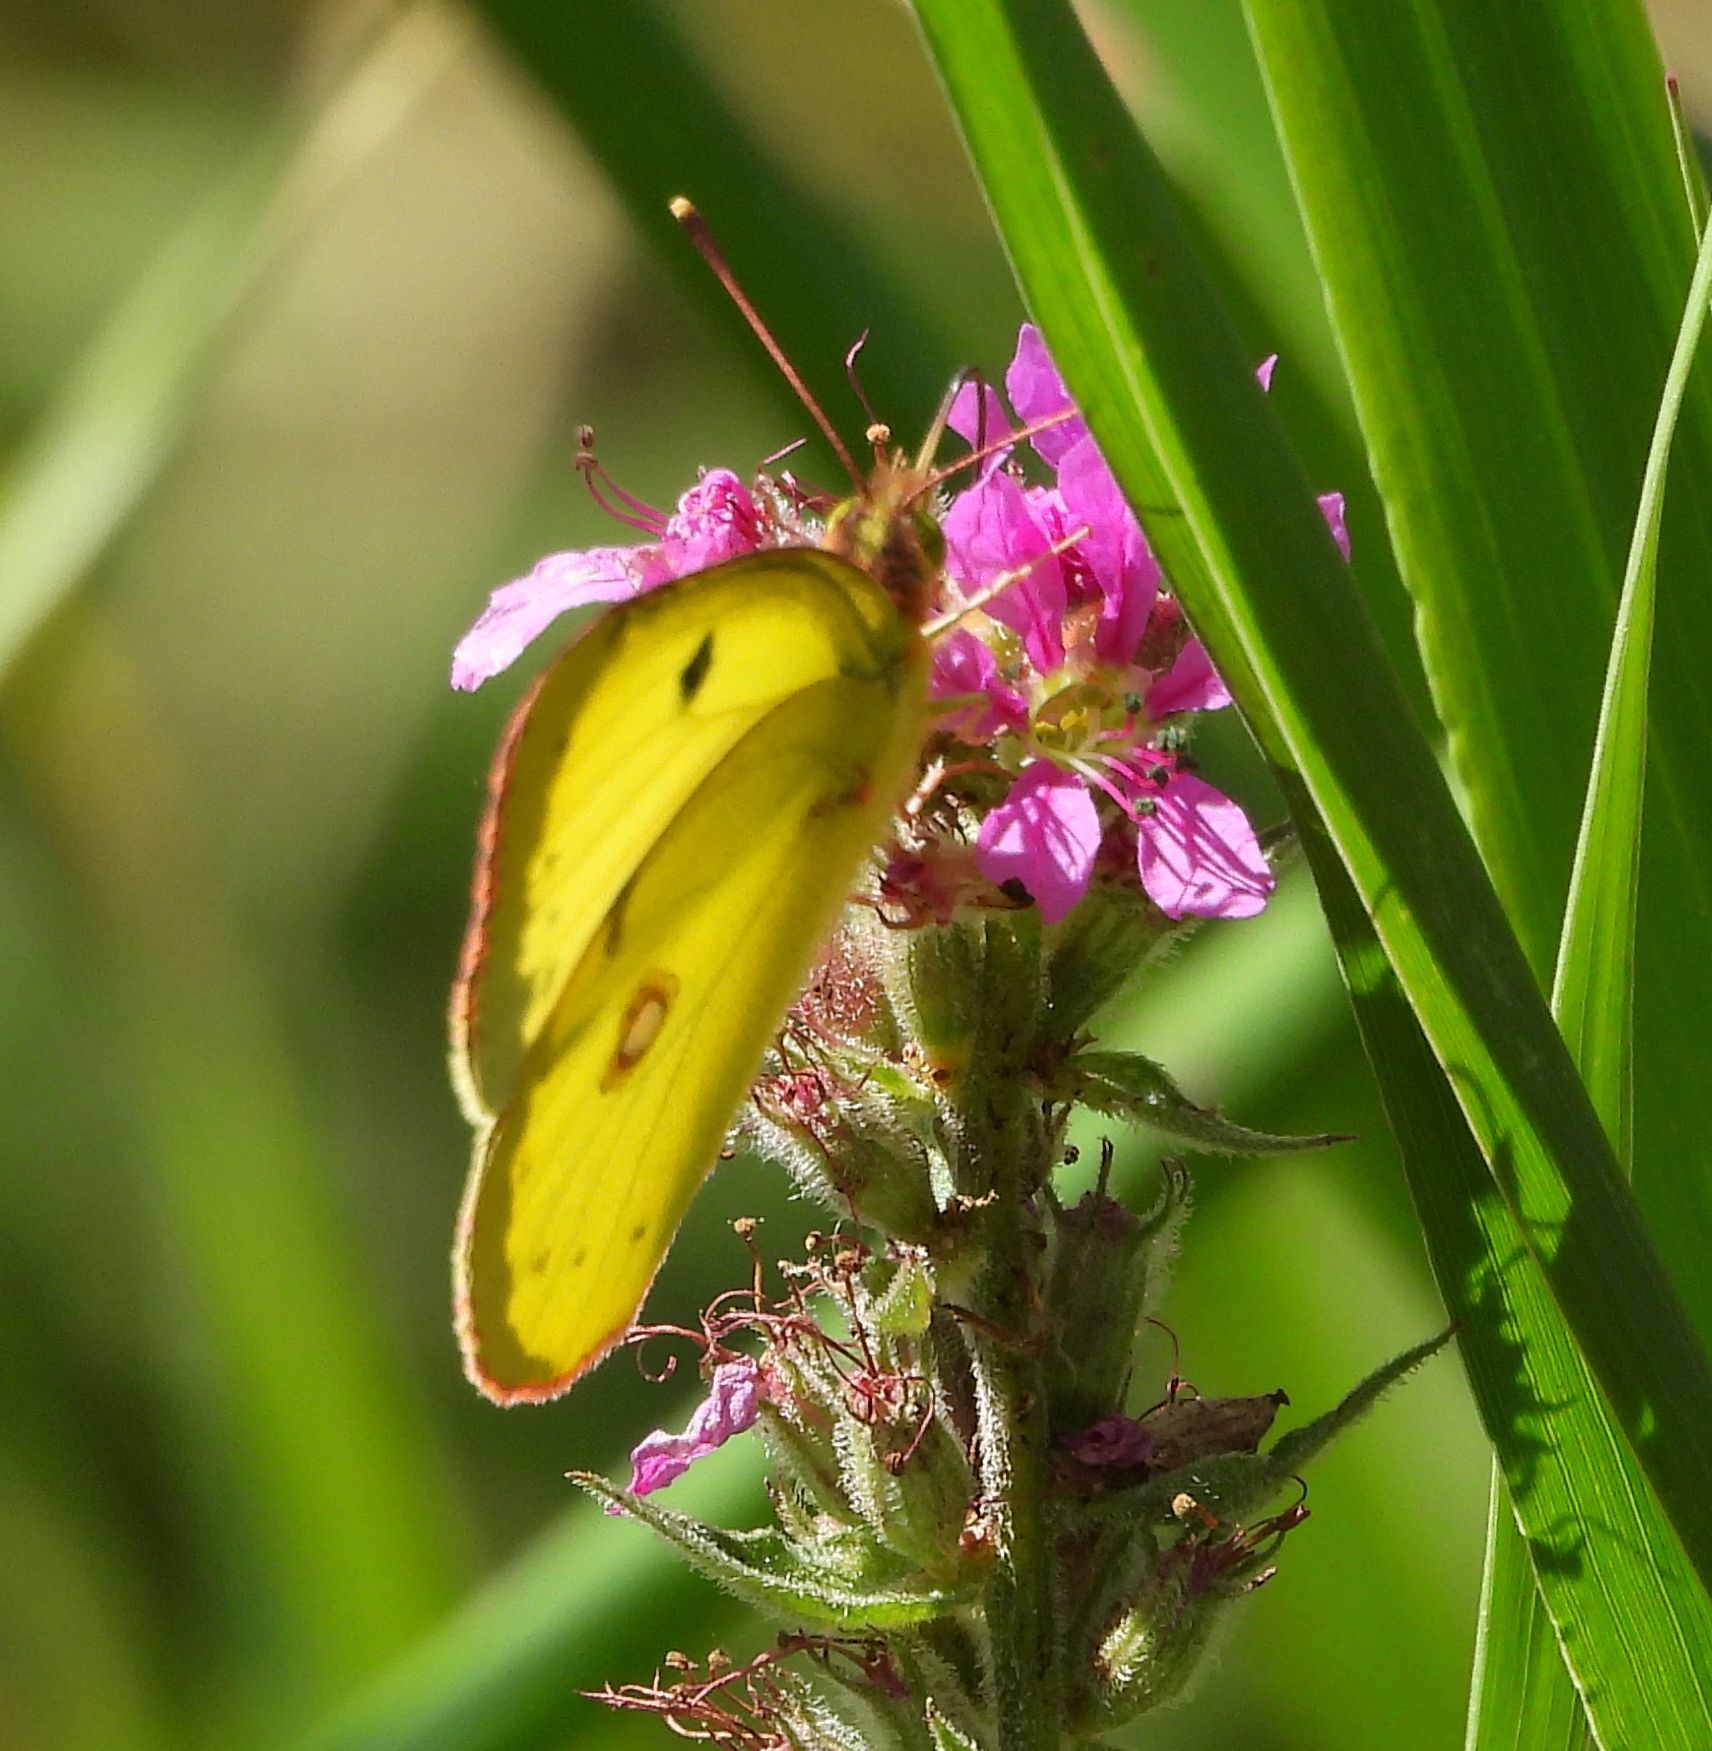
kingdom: Animalia
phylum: Arthropoda
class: Insecta
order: Lepidoptera
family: Pieridae
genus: Colias
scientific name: Colias philodice
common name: Clouded sulphur
